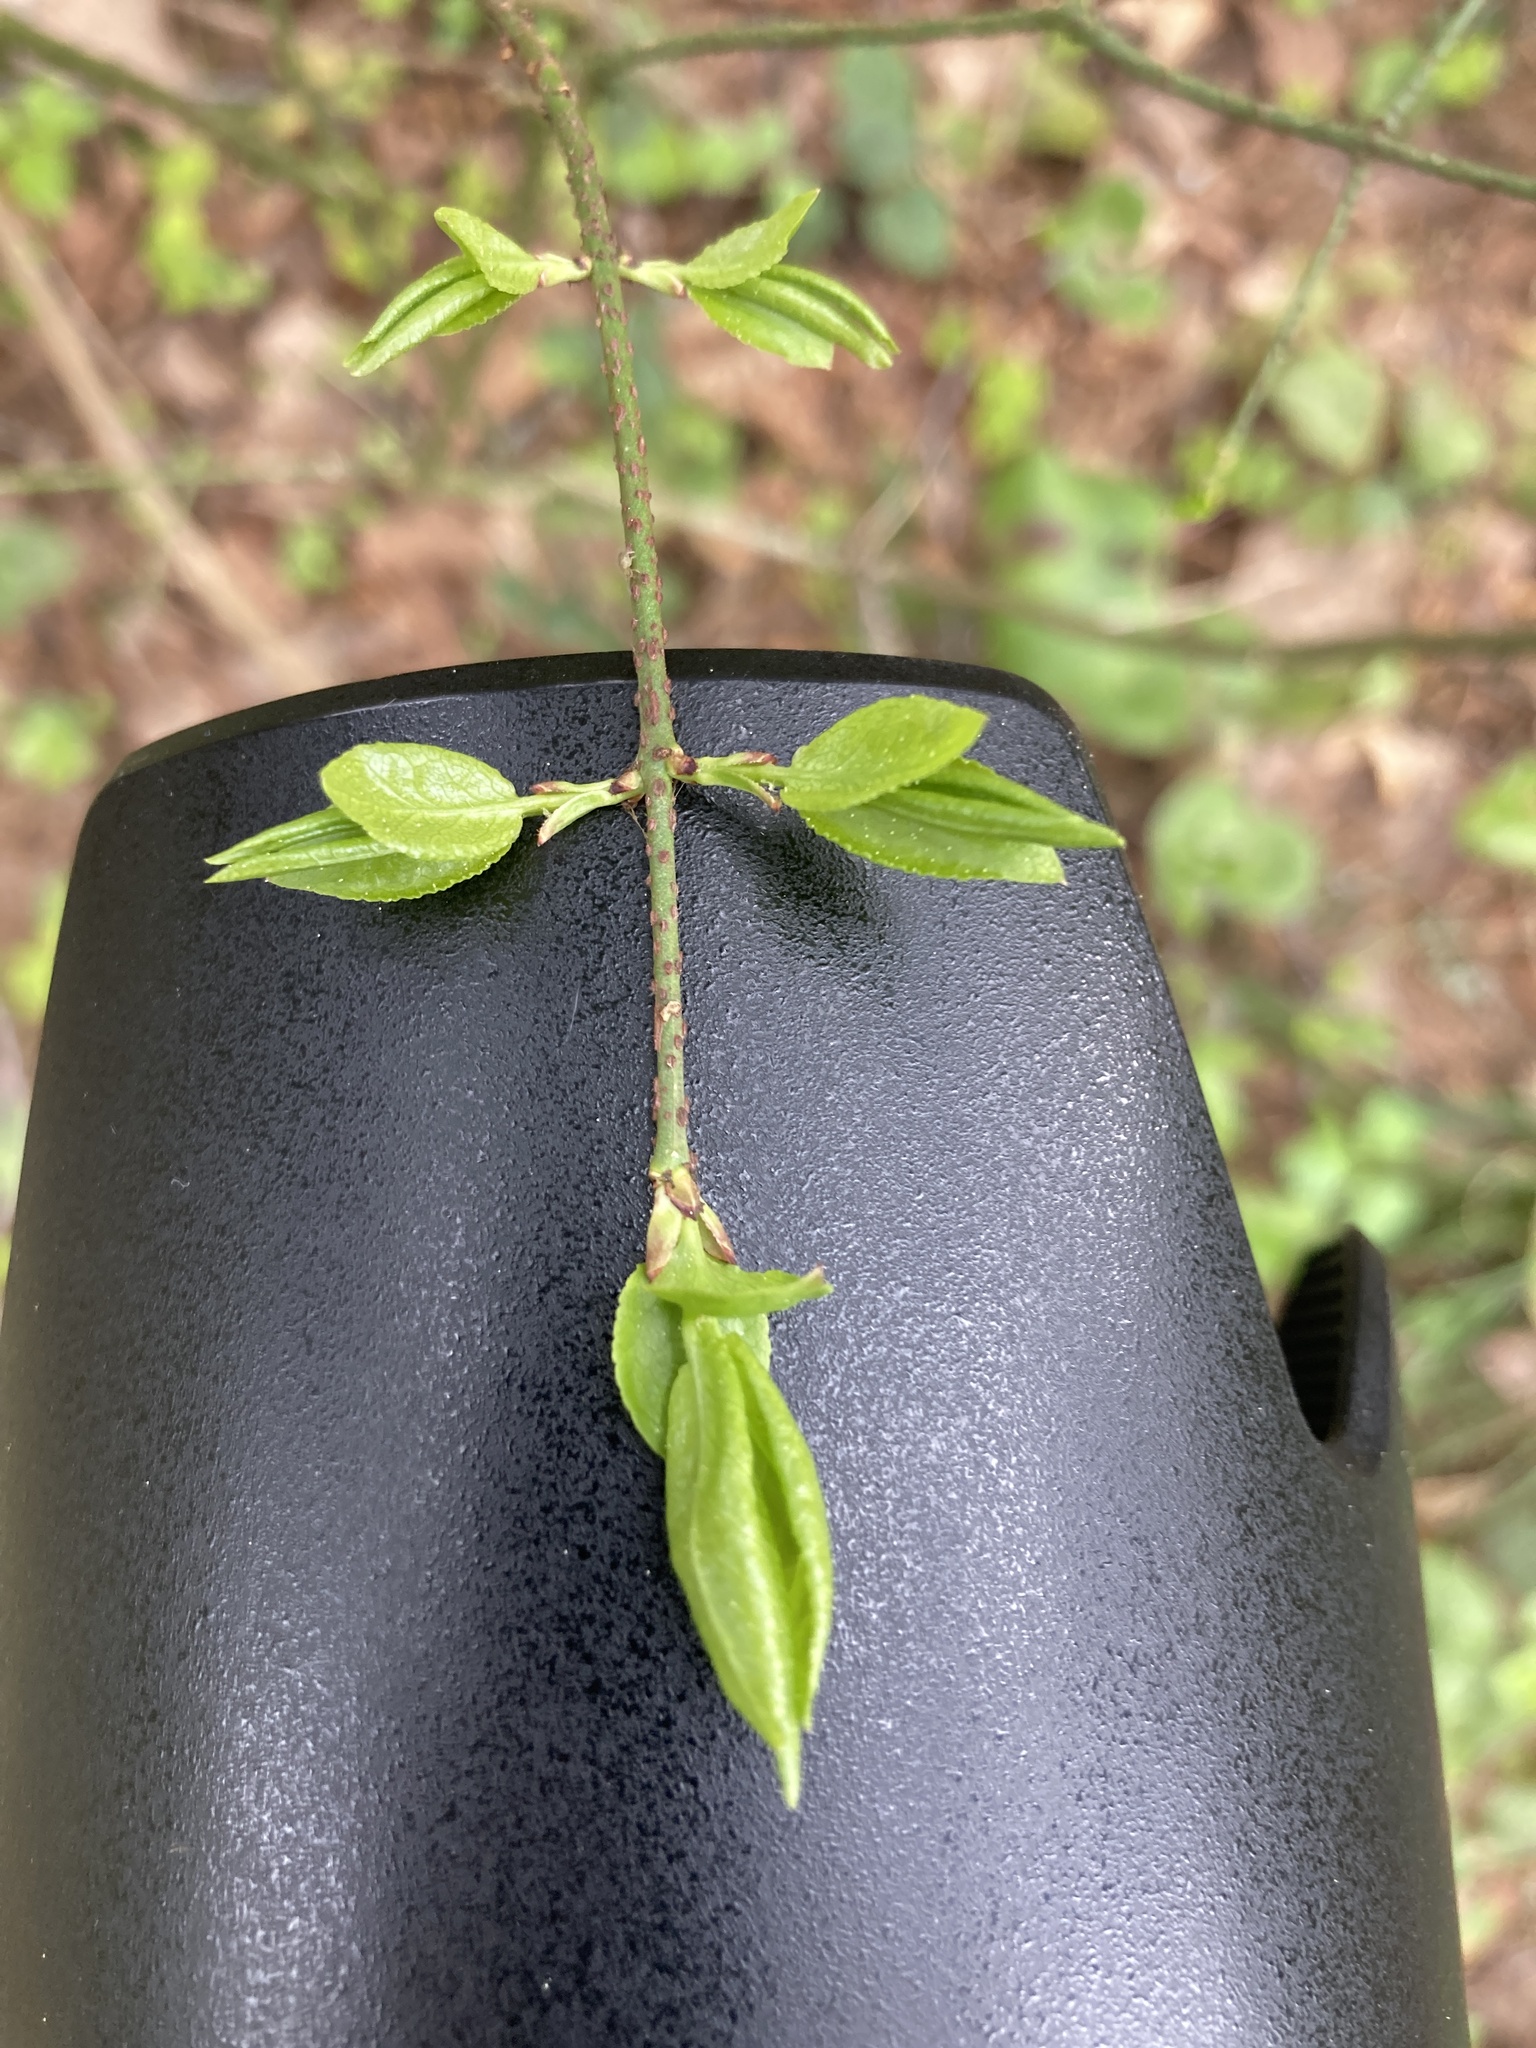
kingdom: Plantae
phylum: Tracheophyta
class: Magnoliopsida
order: Celastrales
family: Celastraceae
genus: Euonymus
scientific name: Euonymus verrucosus
